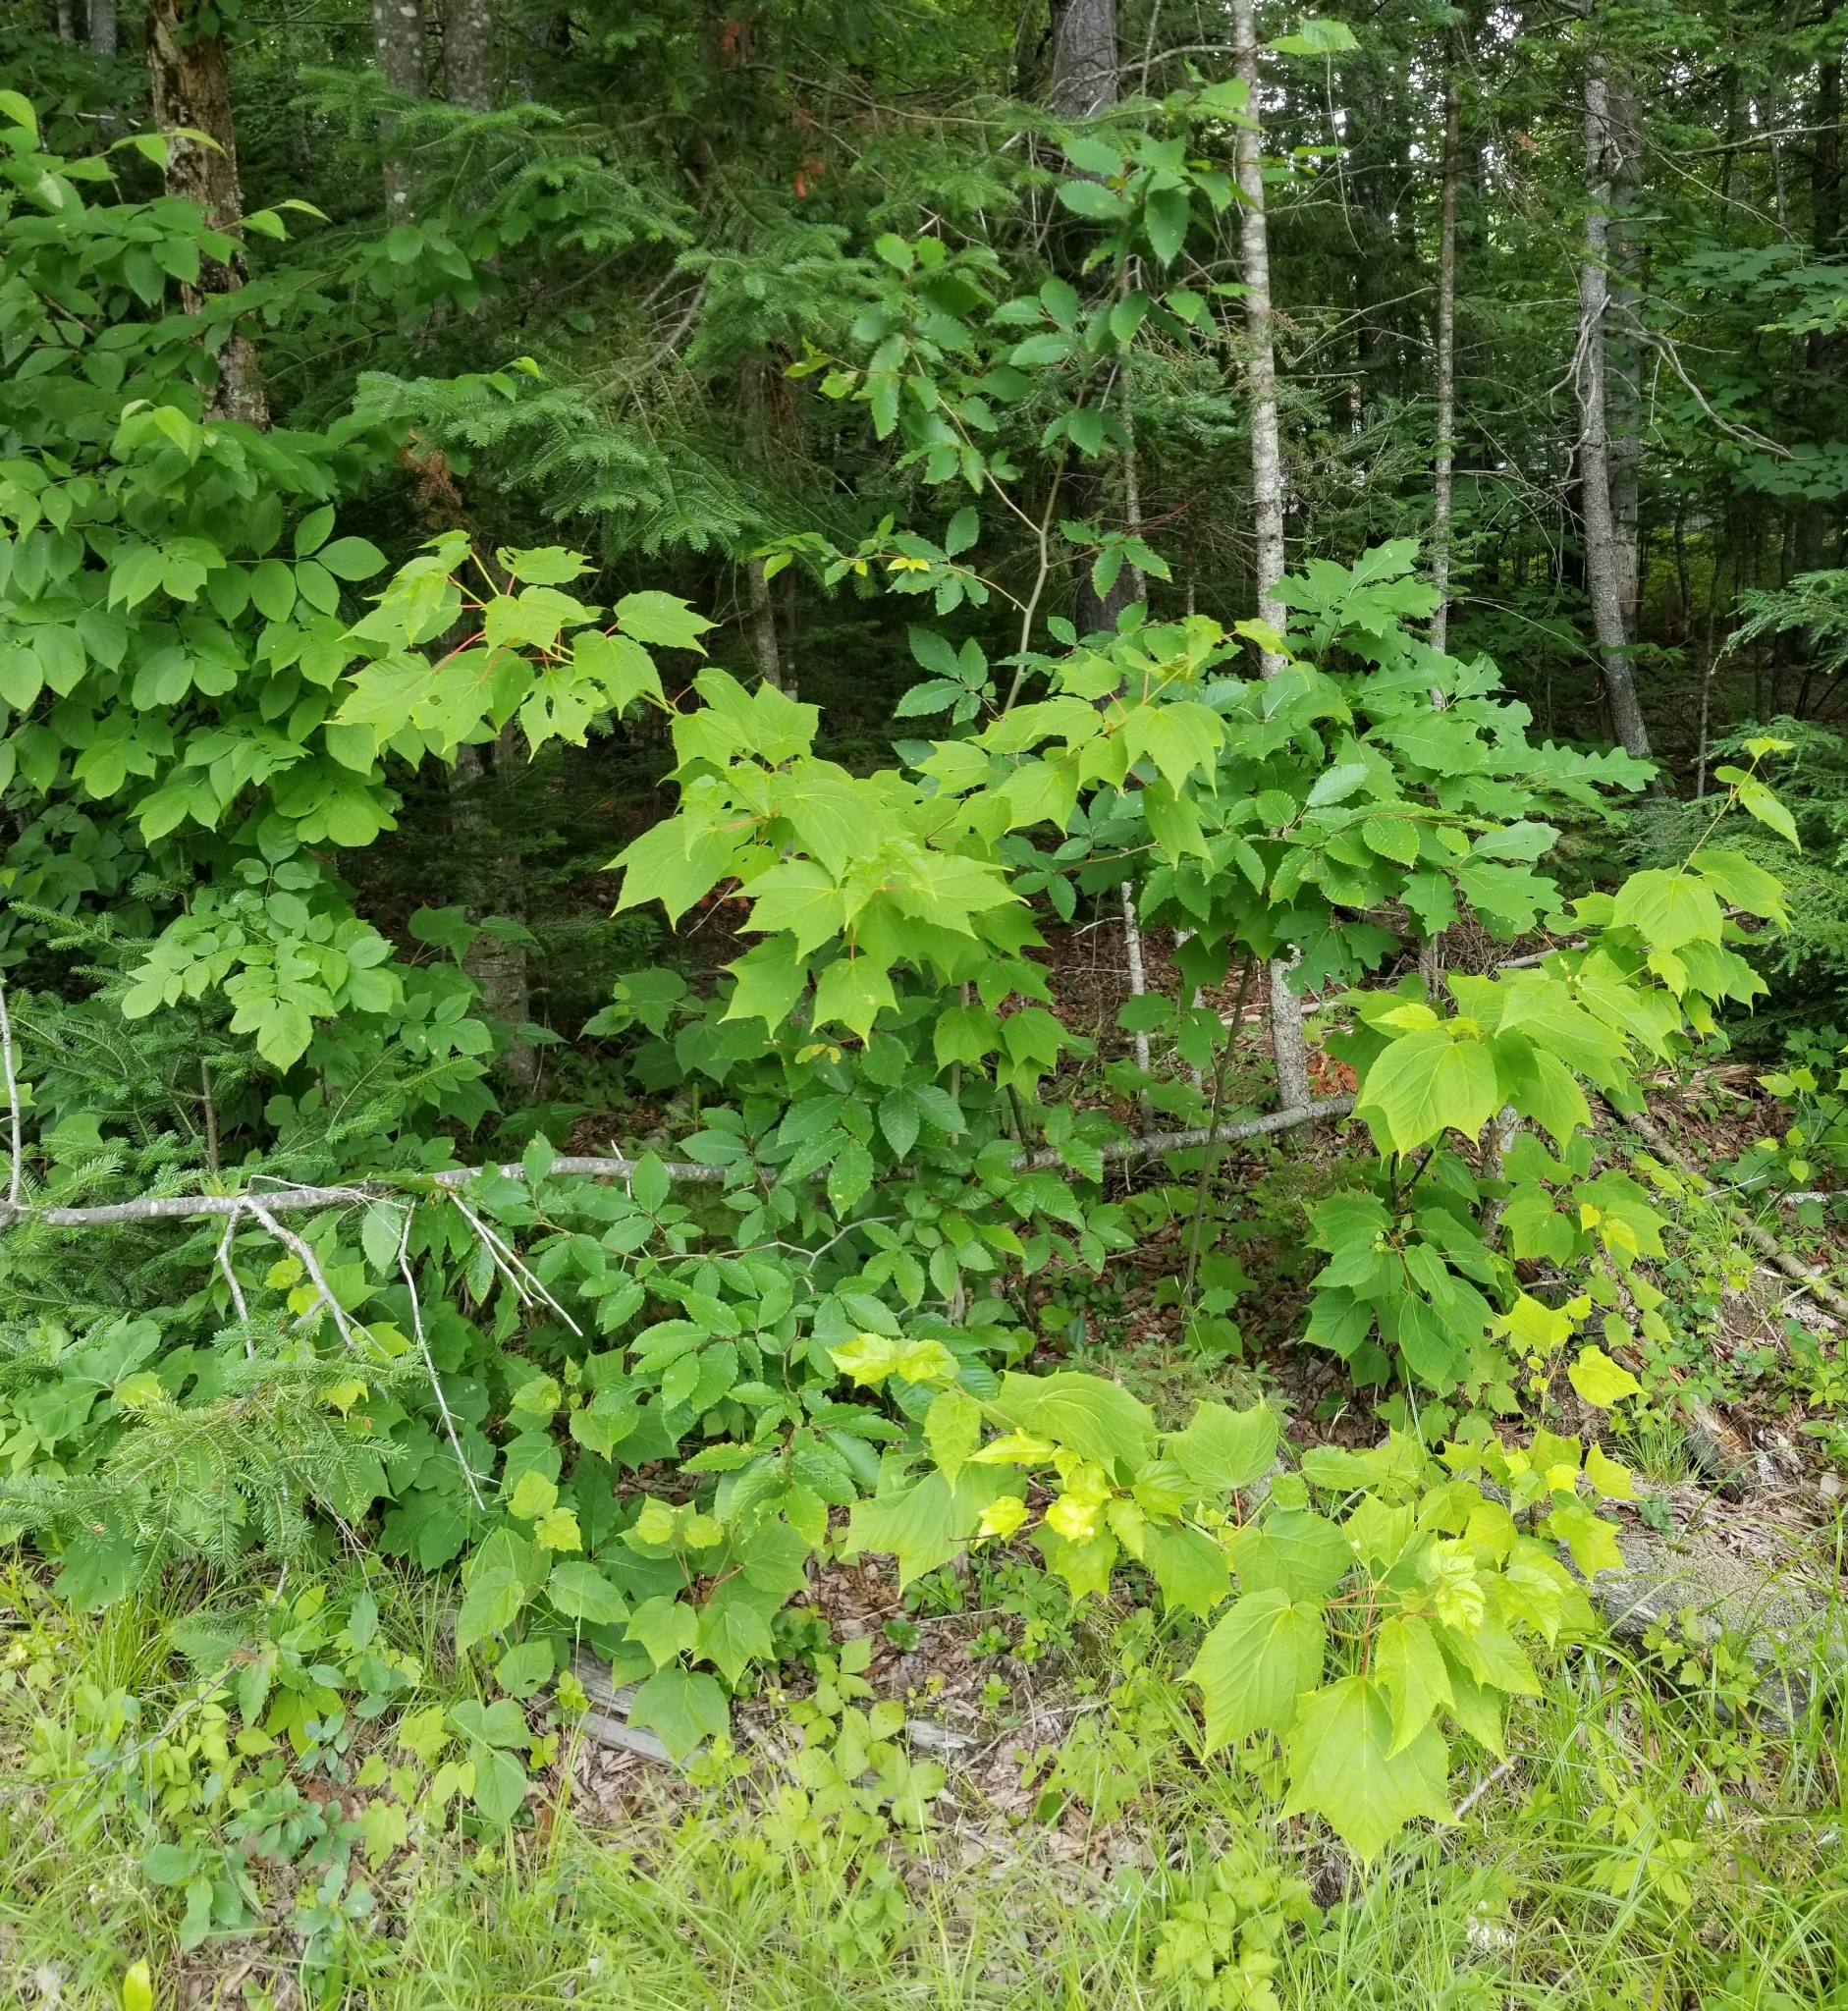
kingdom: Plantae
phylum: Tracheophyta
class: Magnoliopsida
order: Sapindales
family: Sapindaceae
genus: Acer
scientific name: Acer pensylvanicum
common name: Moosewood
